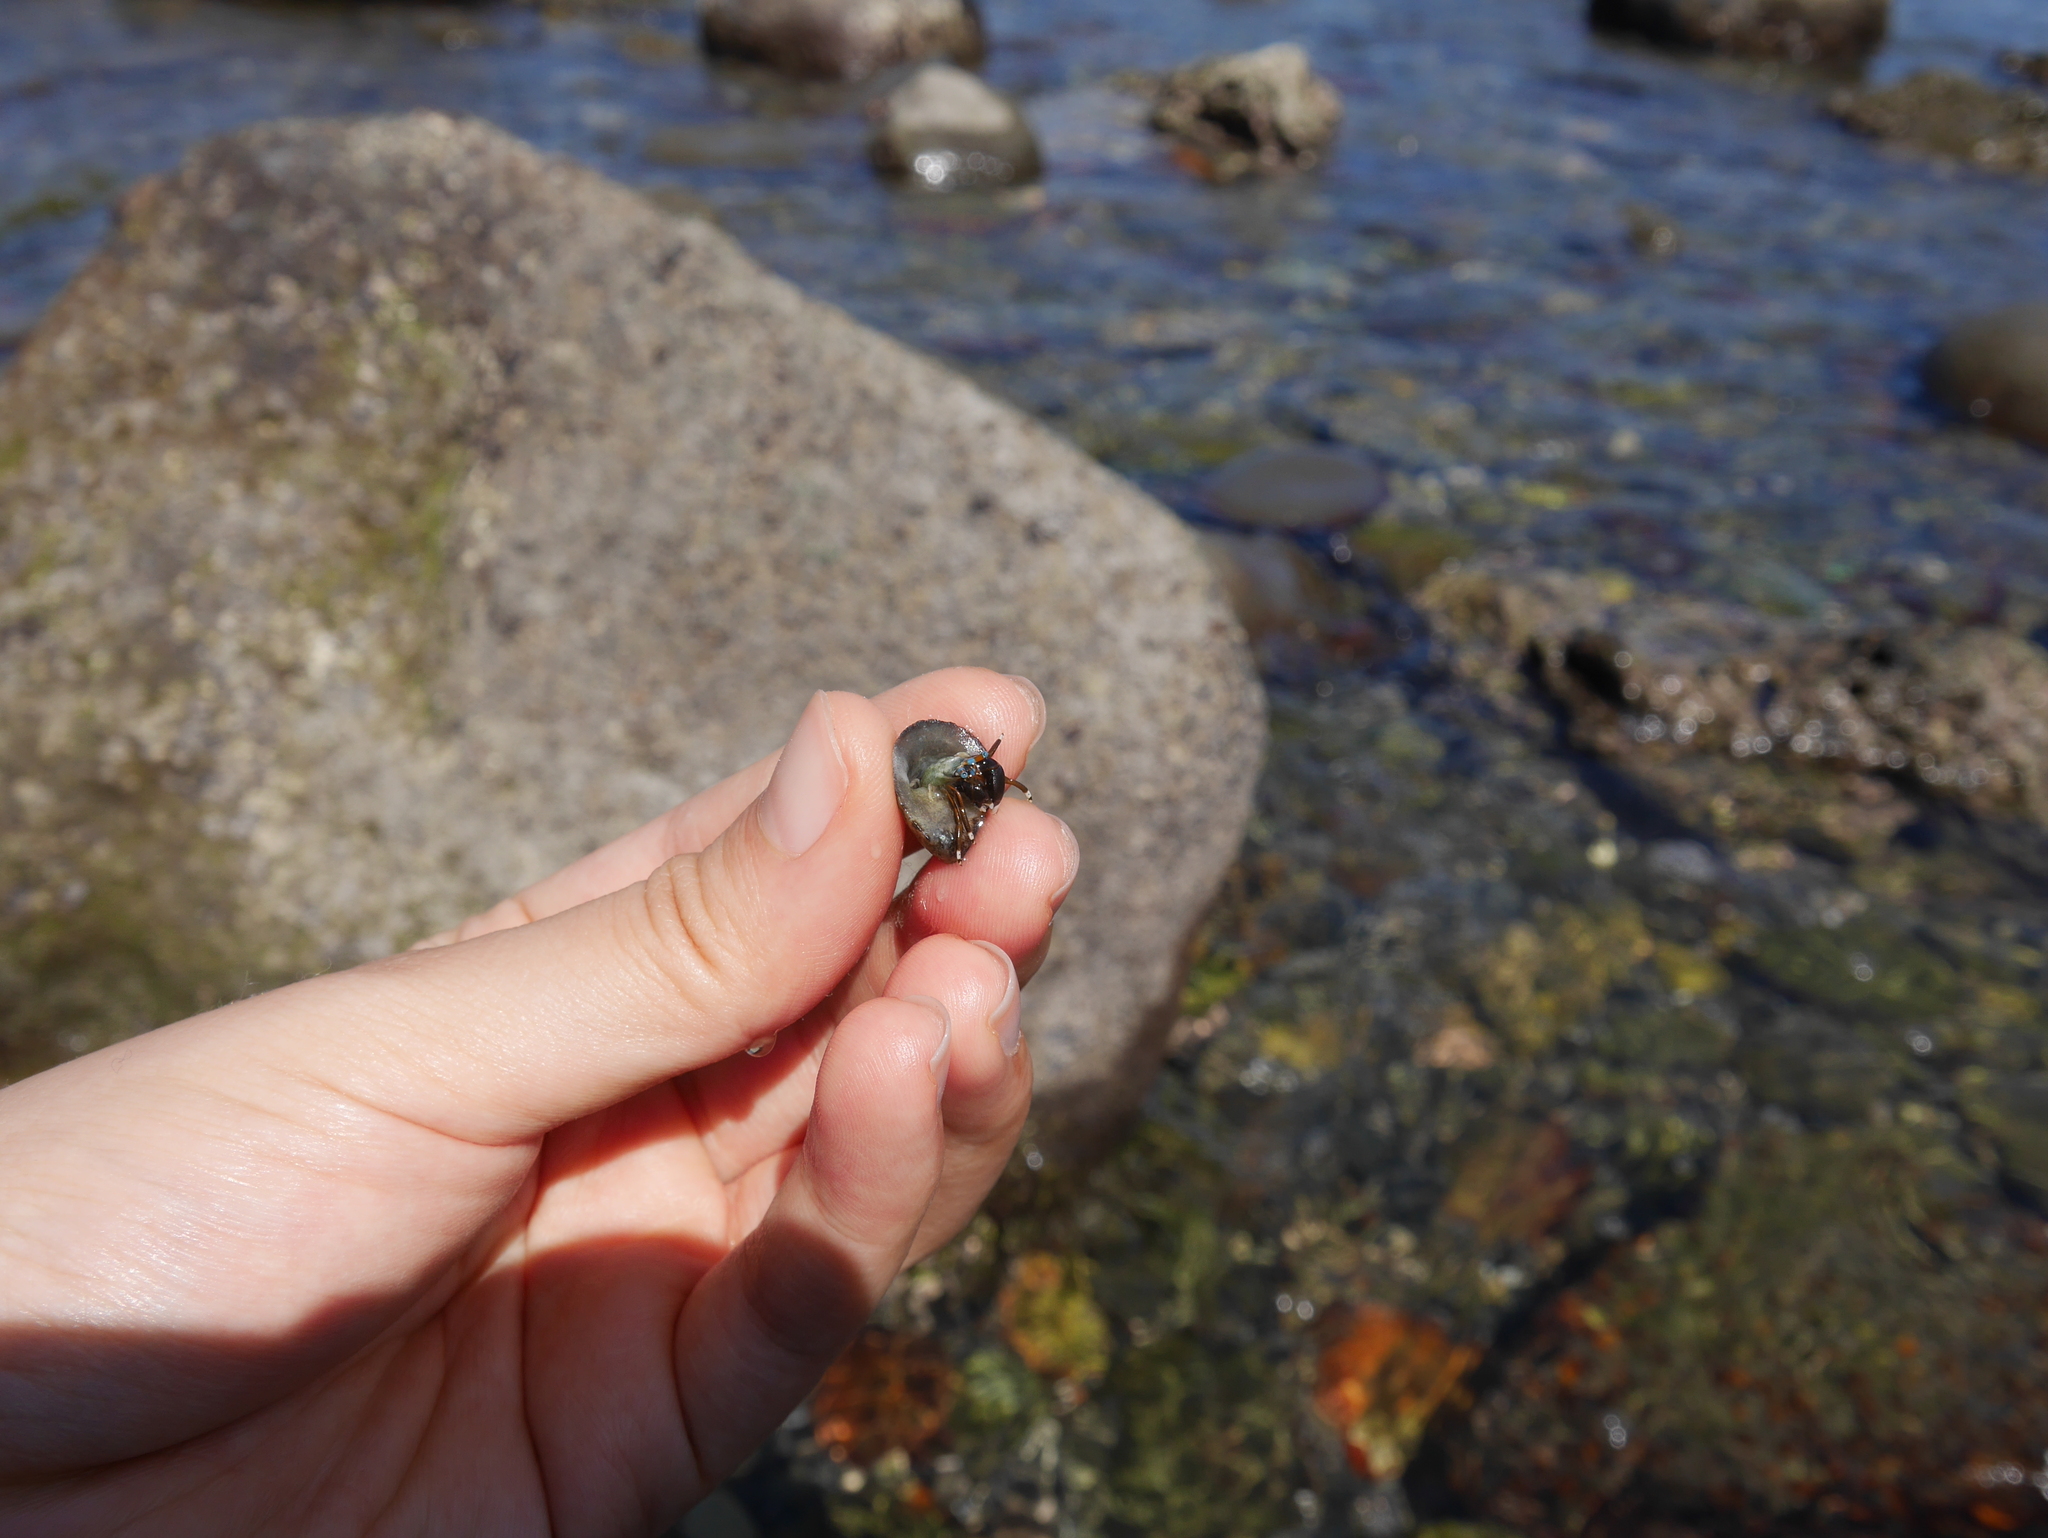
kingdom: Animalia
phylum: Arthropoda
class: Malacostraca
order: Decapoda
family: Diogenidae
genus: Calcinus
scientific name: Calcinus laevimanus
